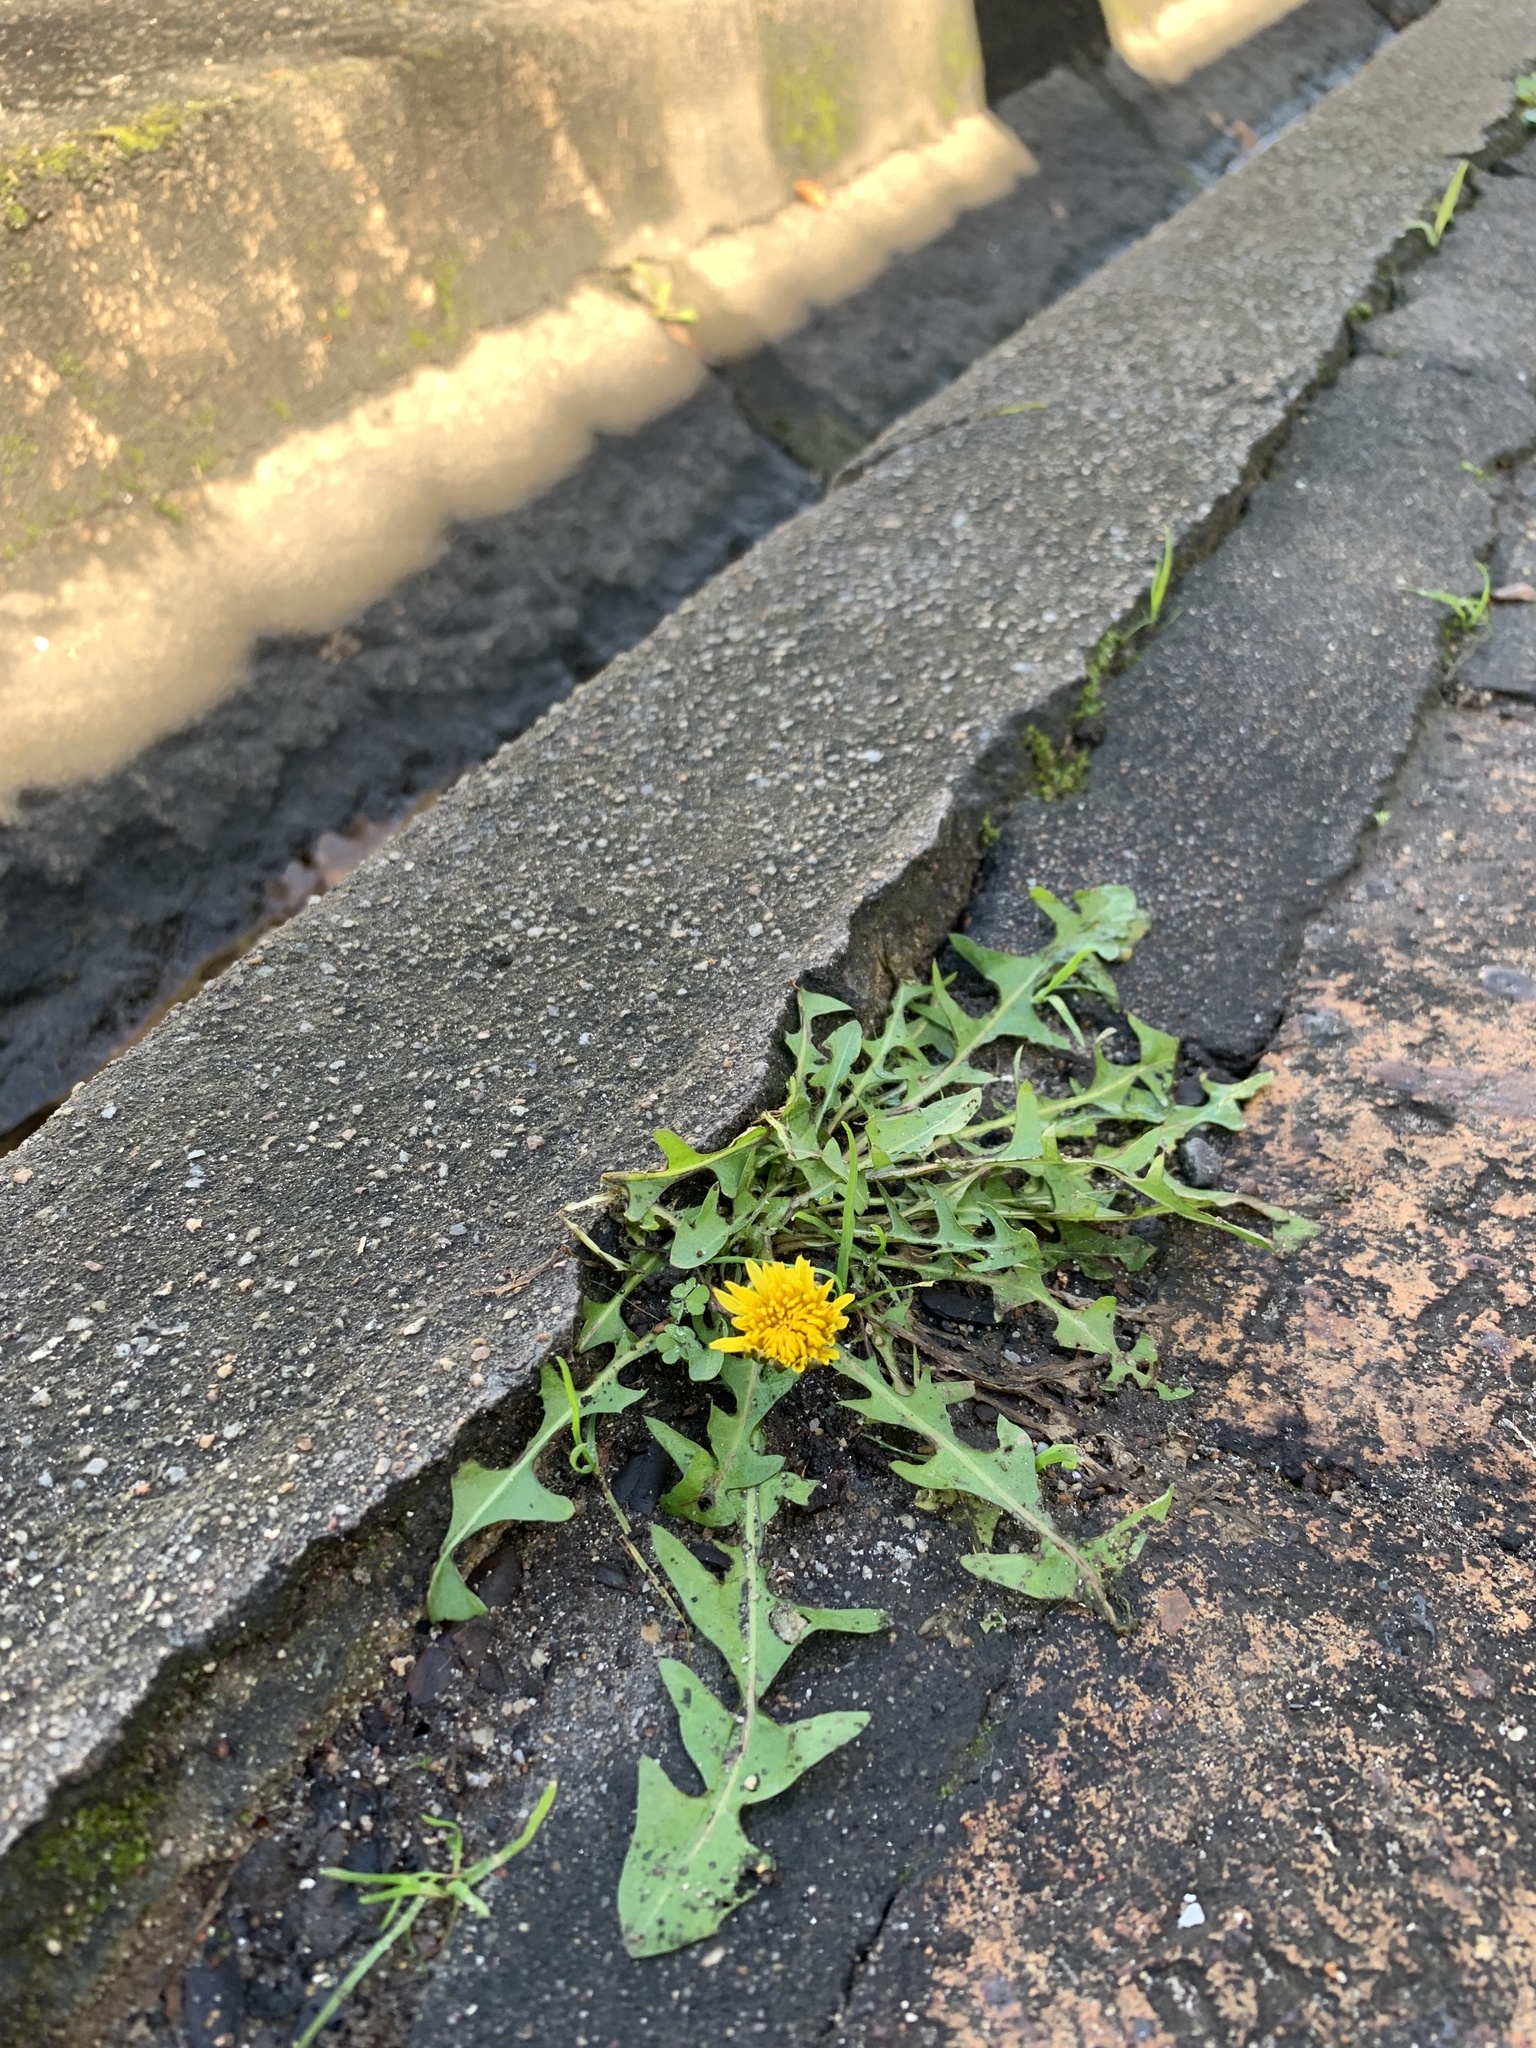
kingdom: Plantae
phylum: Tracheophyta
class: Magnoliopsida
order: Asterales
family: Asteraceae
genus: Taraxacum
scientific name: Taraxacum officinale
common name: Common dandelion
